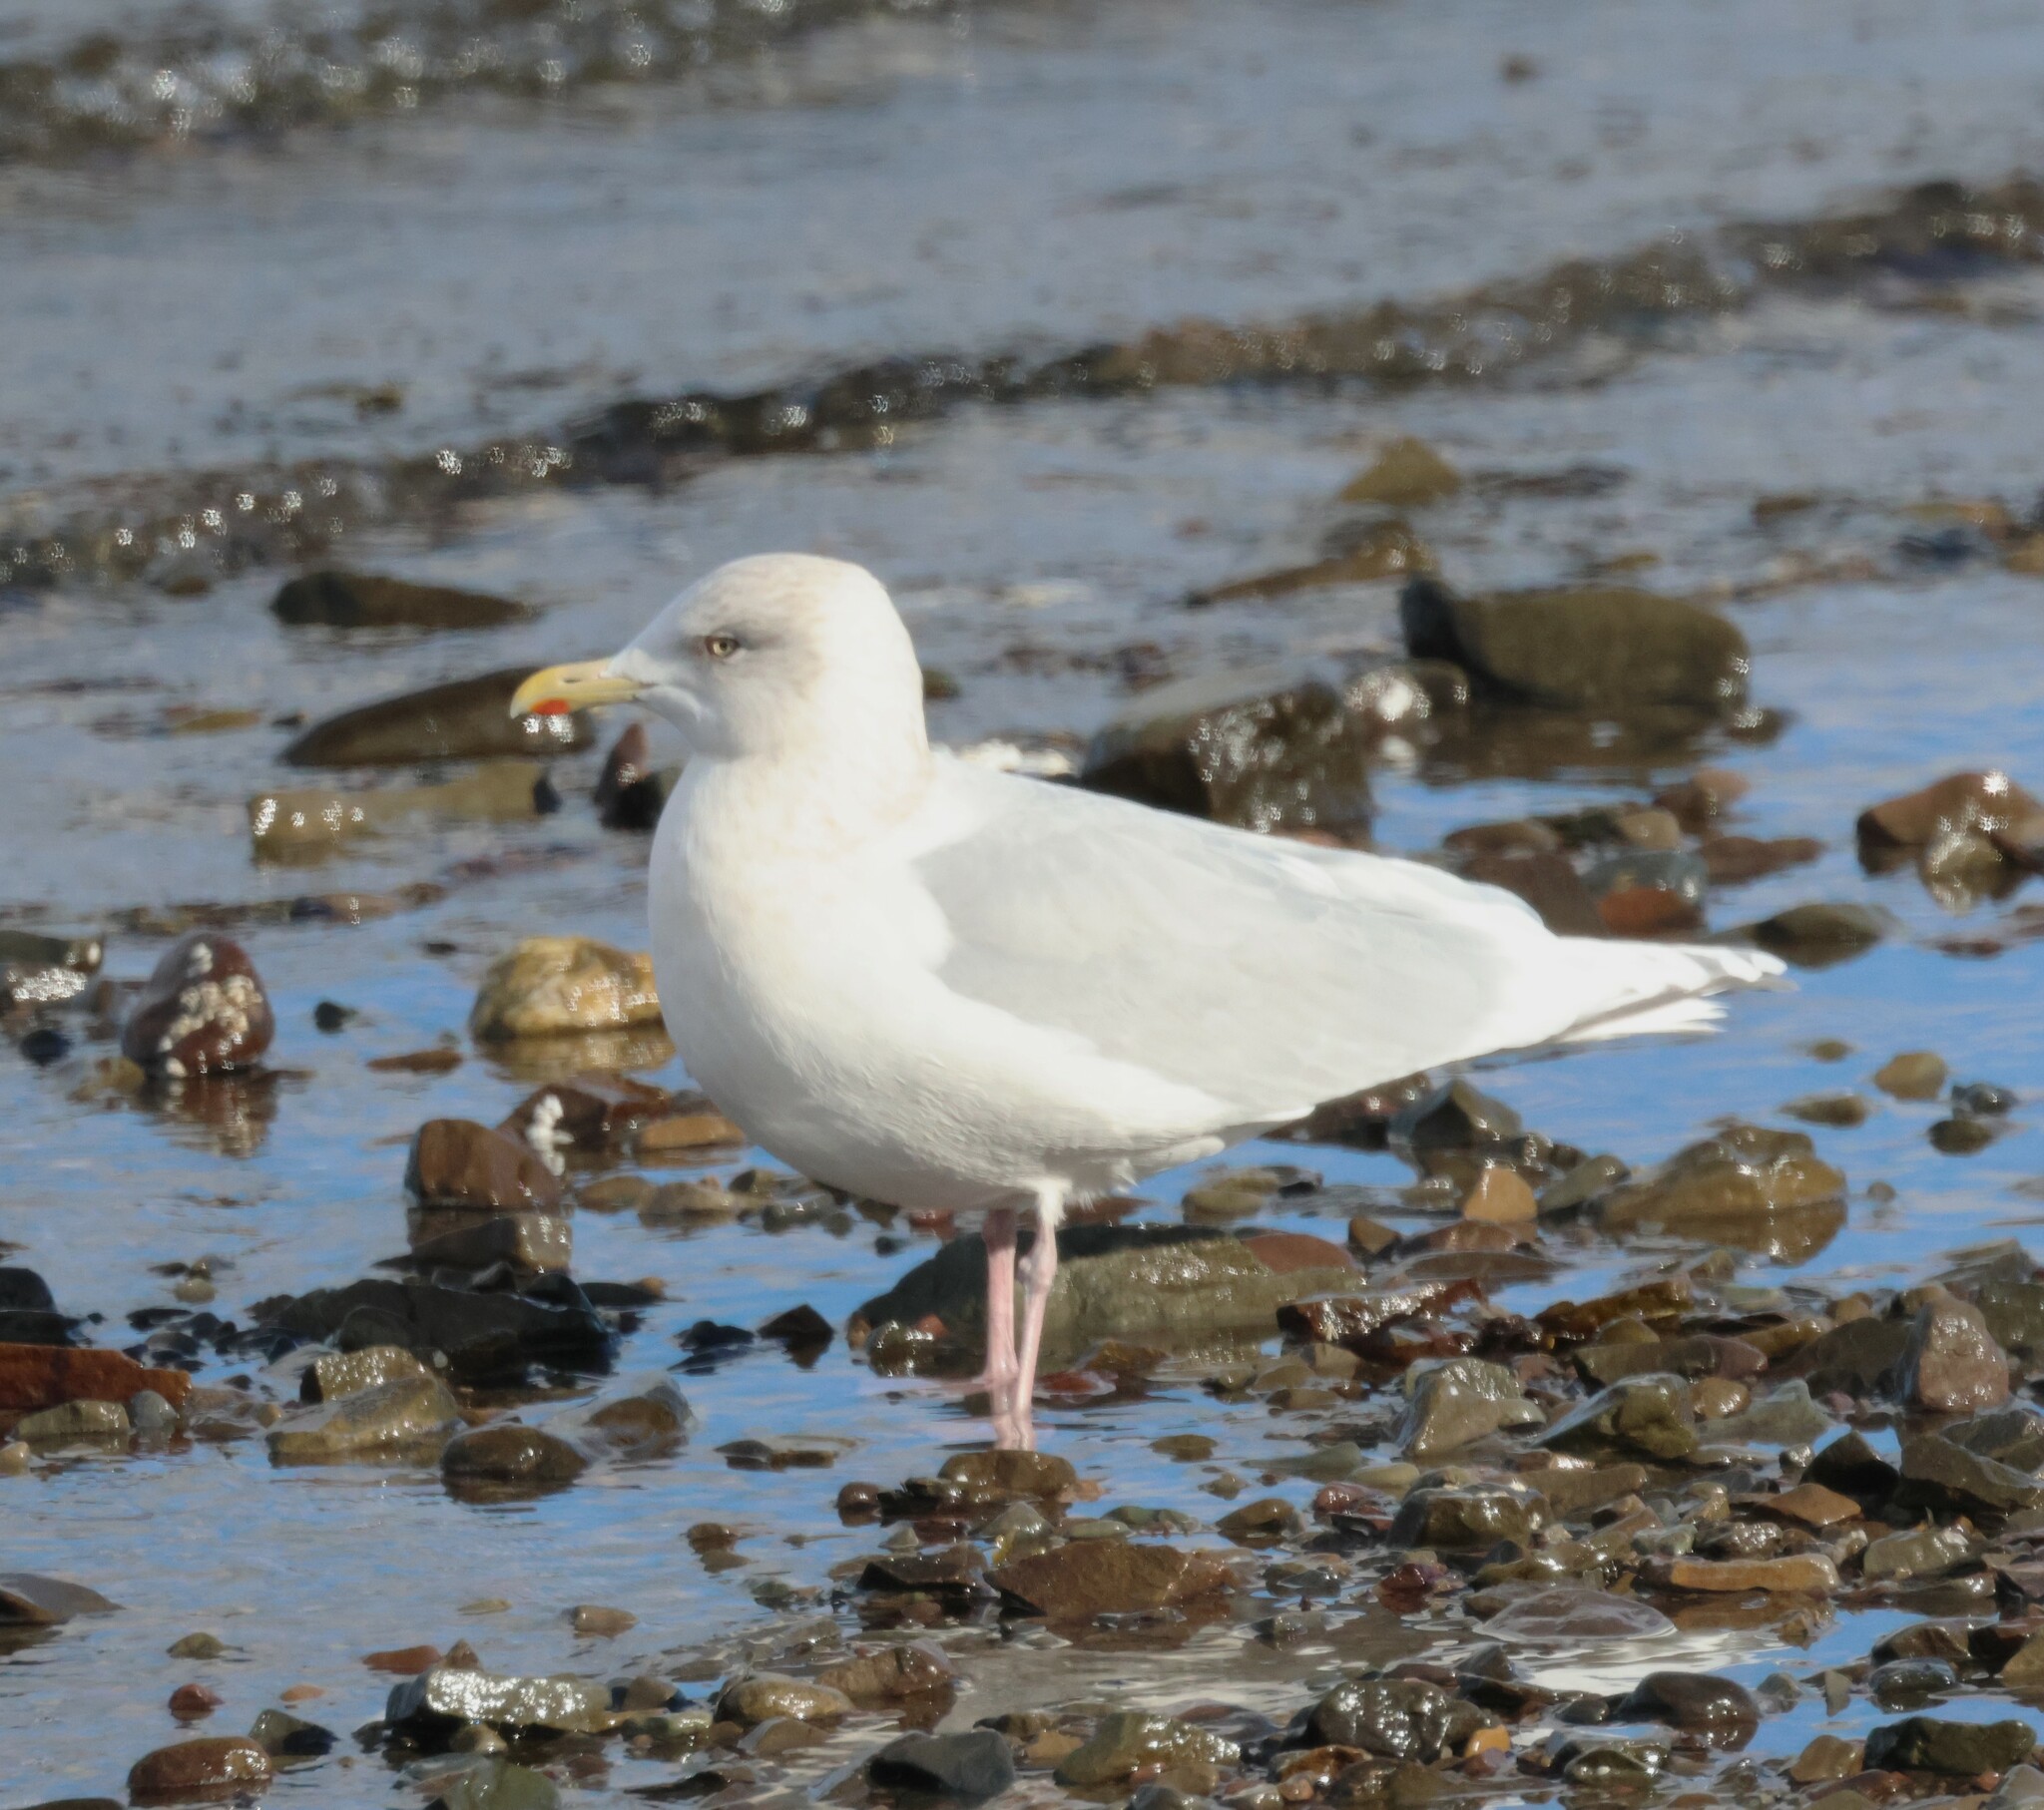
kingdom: Animalia
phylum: Chordata
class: Aves
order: Charadriiformes
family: Laridae
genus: Larus
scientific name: Larus glaucoides
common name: Iceland gull
